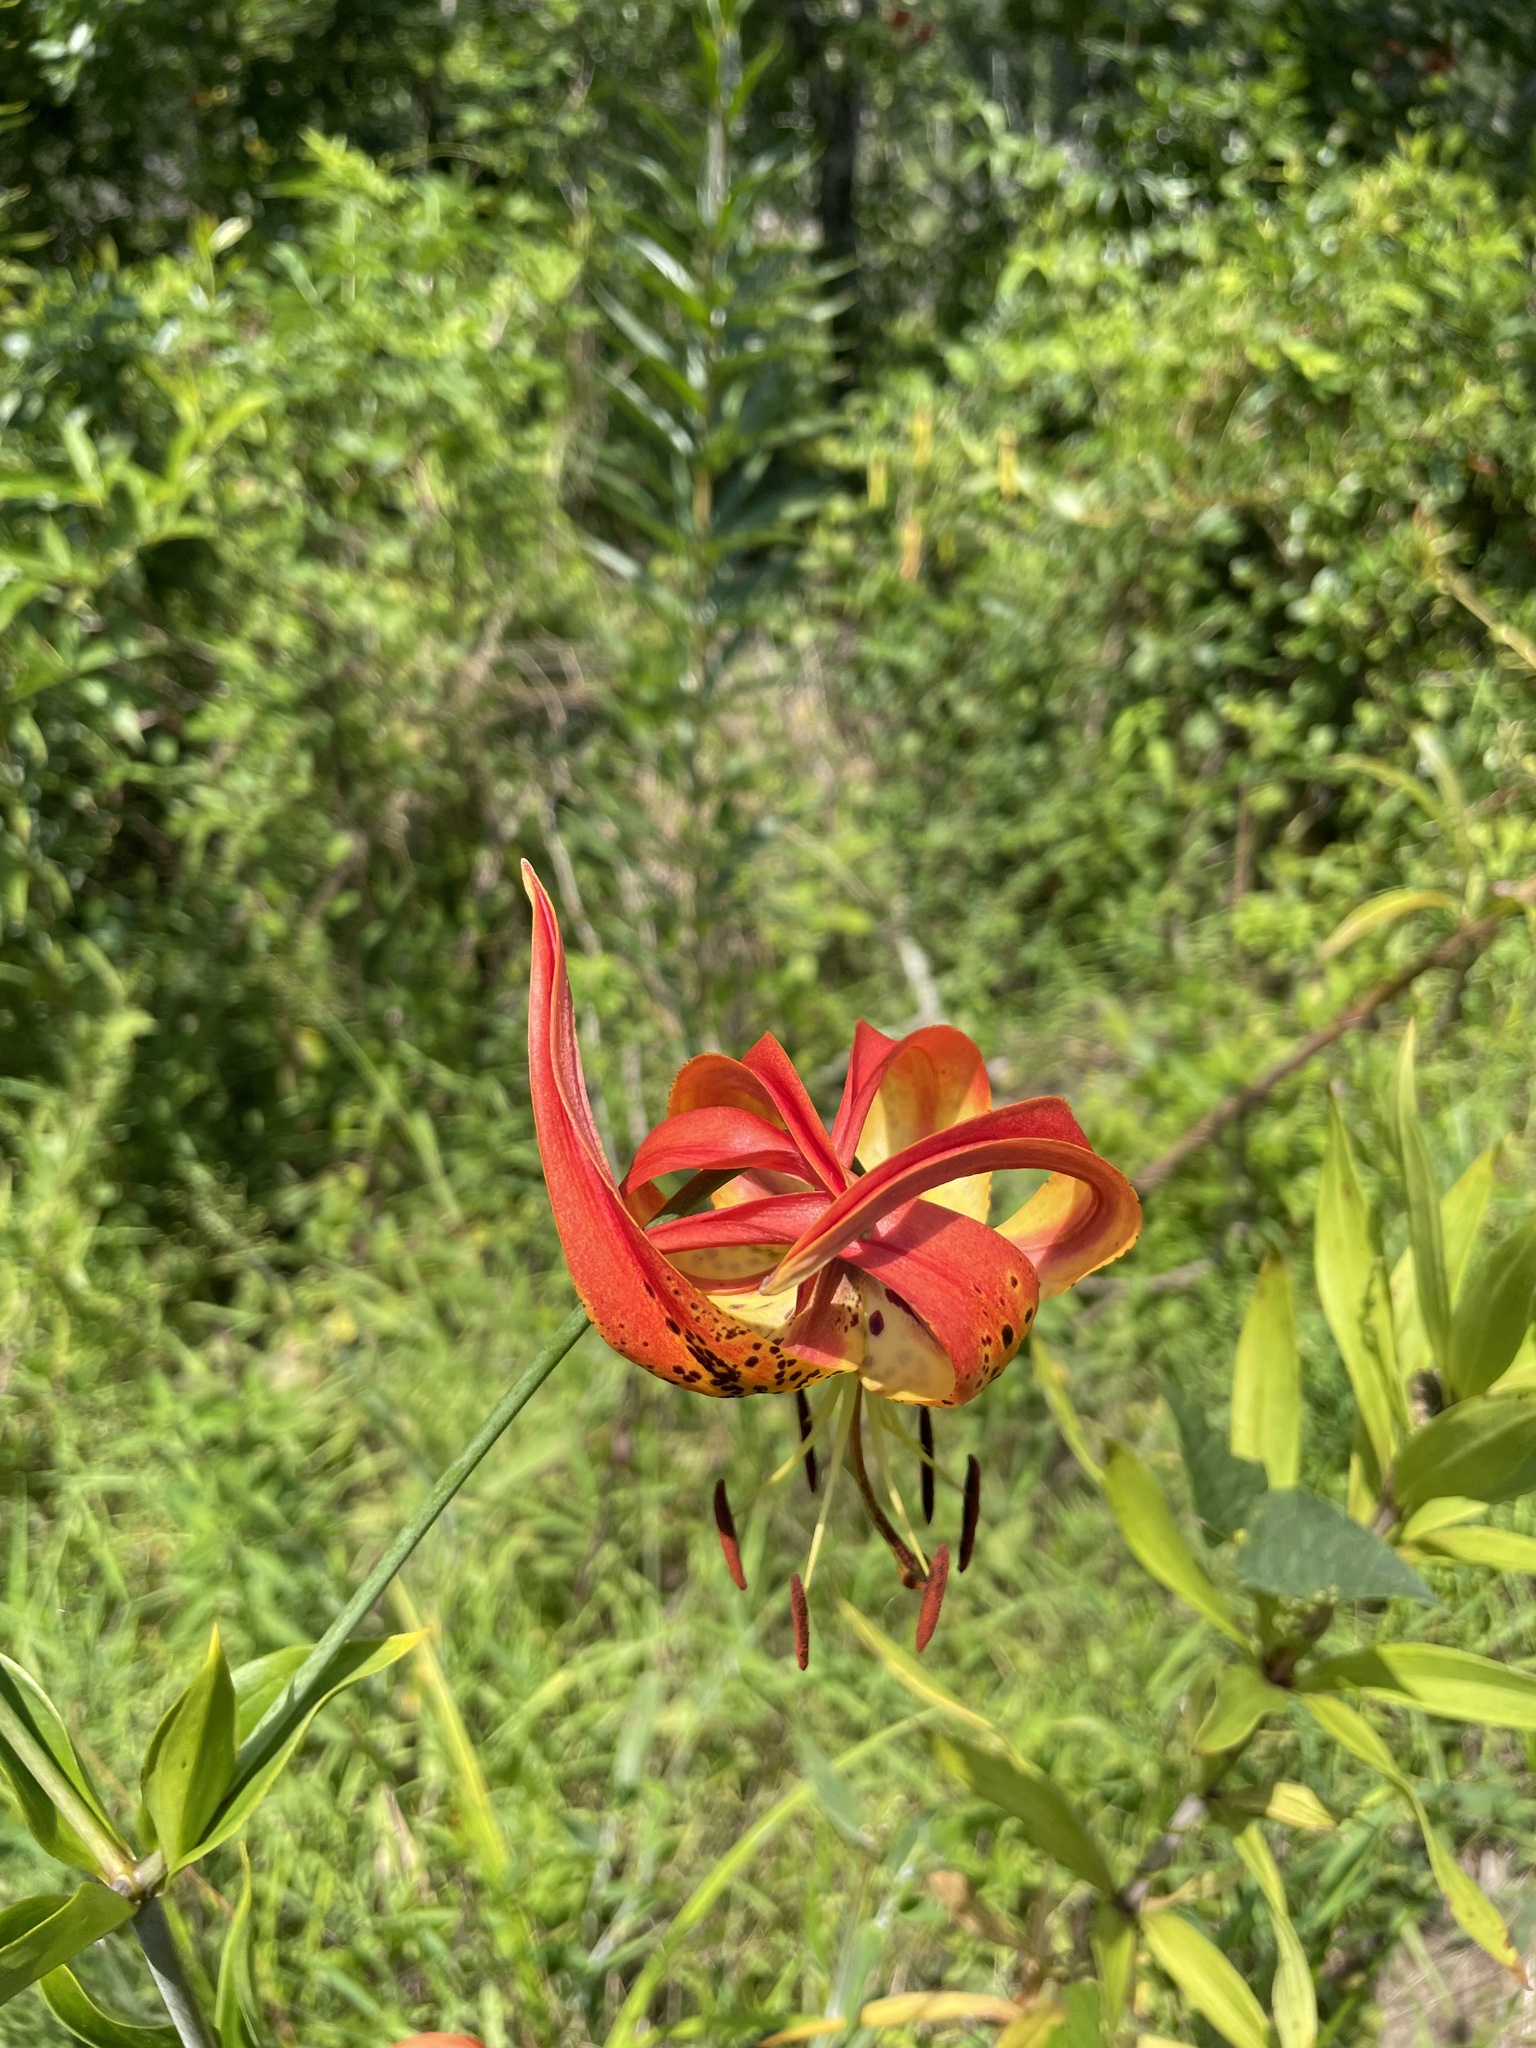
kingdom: Plantae
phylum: Tracheophyta
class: Liliopsida
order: Liliales
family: Liliaceae
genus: Lilium
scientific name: Lilium superbum
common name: American turk's-cap lily
